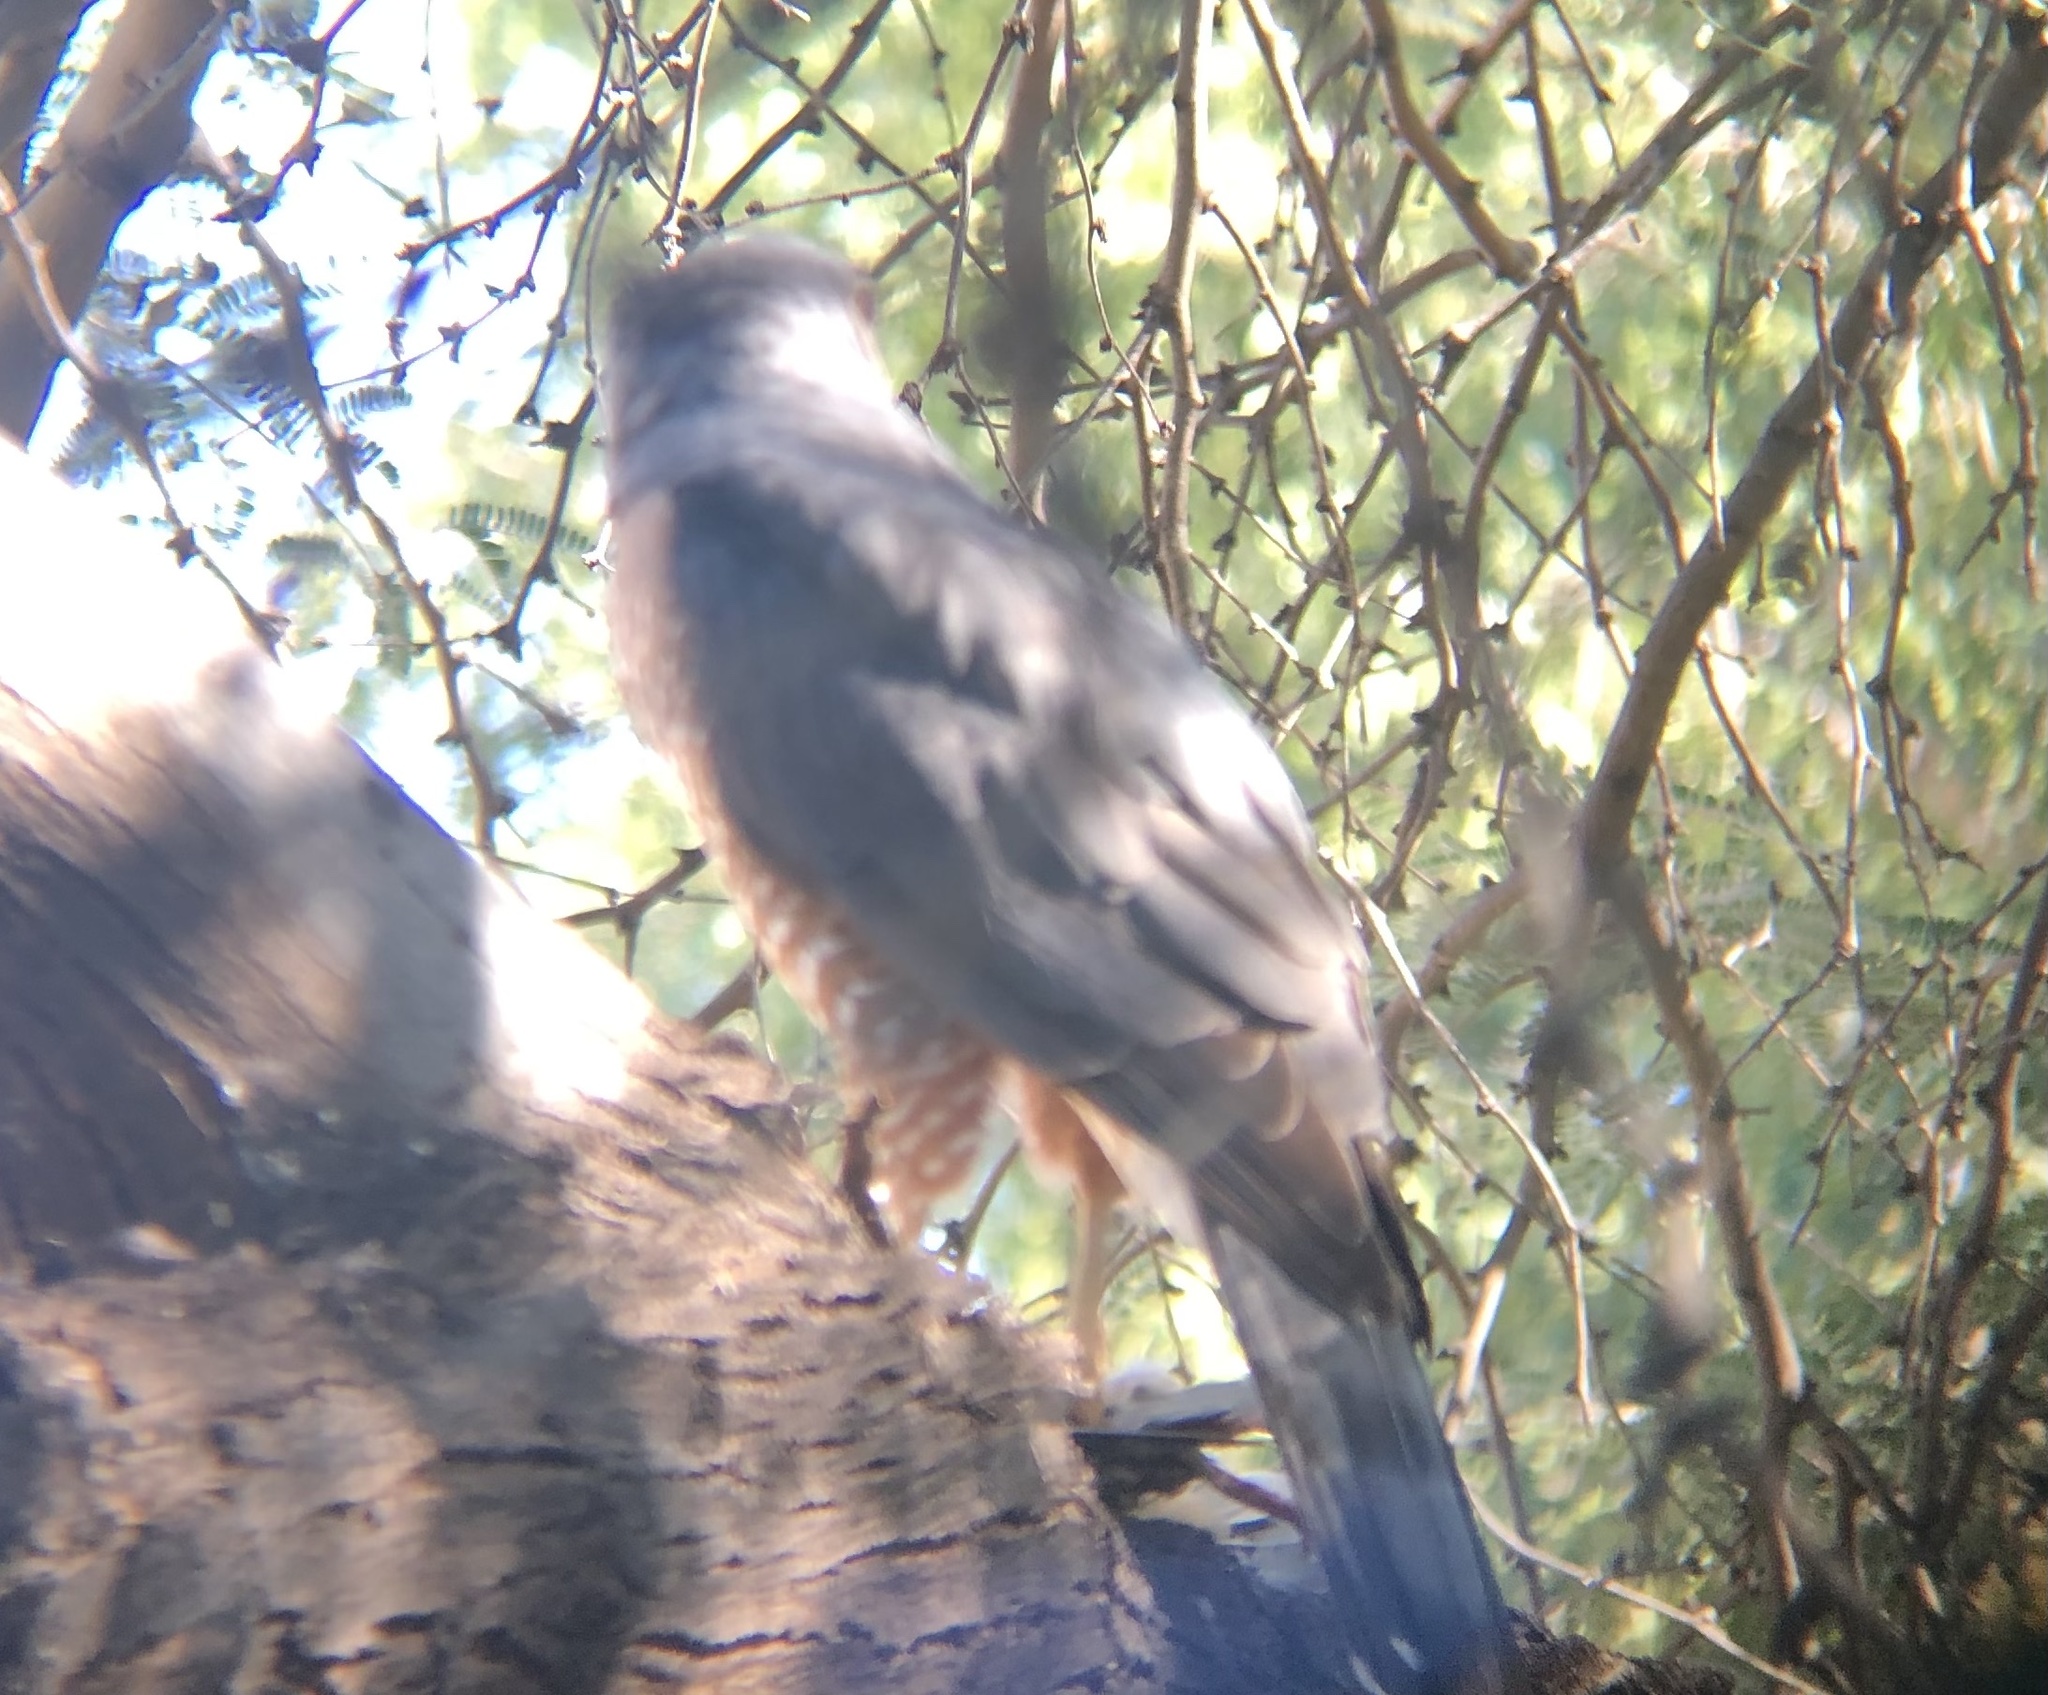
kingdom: Animalia
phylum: Chordata
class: Aves
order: Accipitriformes
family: Accipitridae
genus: Accipiter
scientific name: Accipiter cooperii
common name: Cooper's hawk
